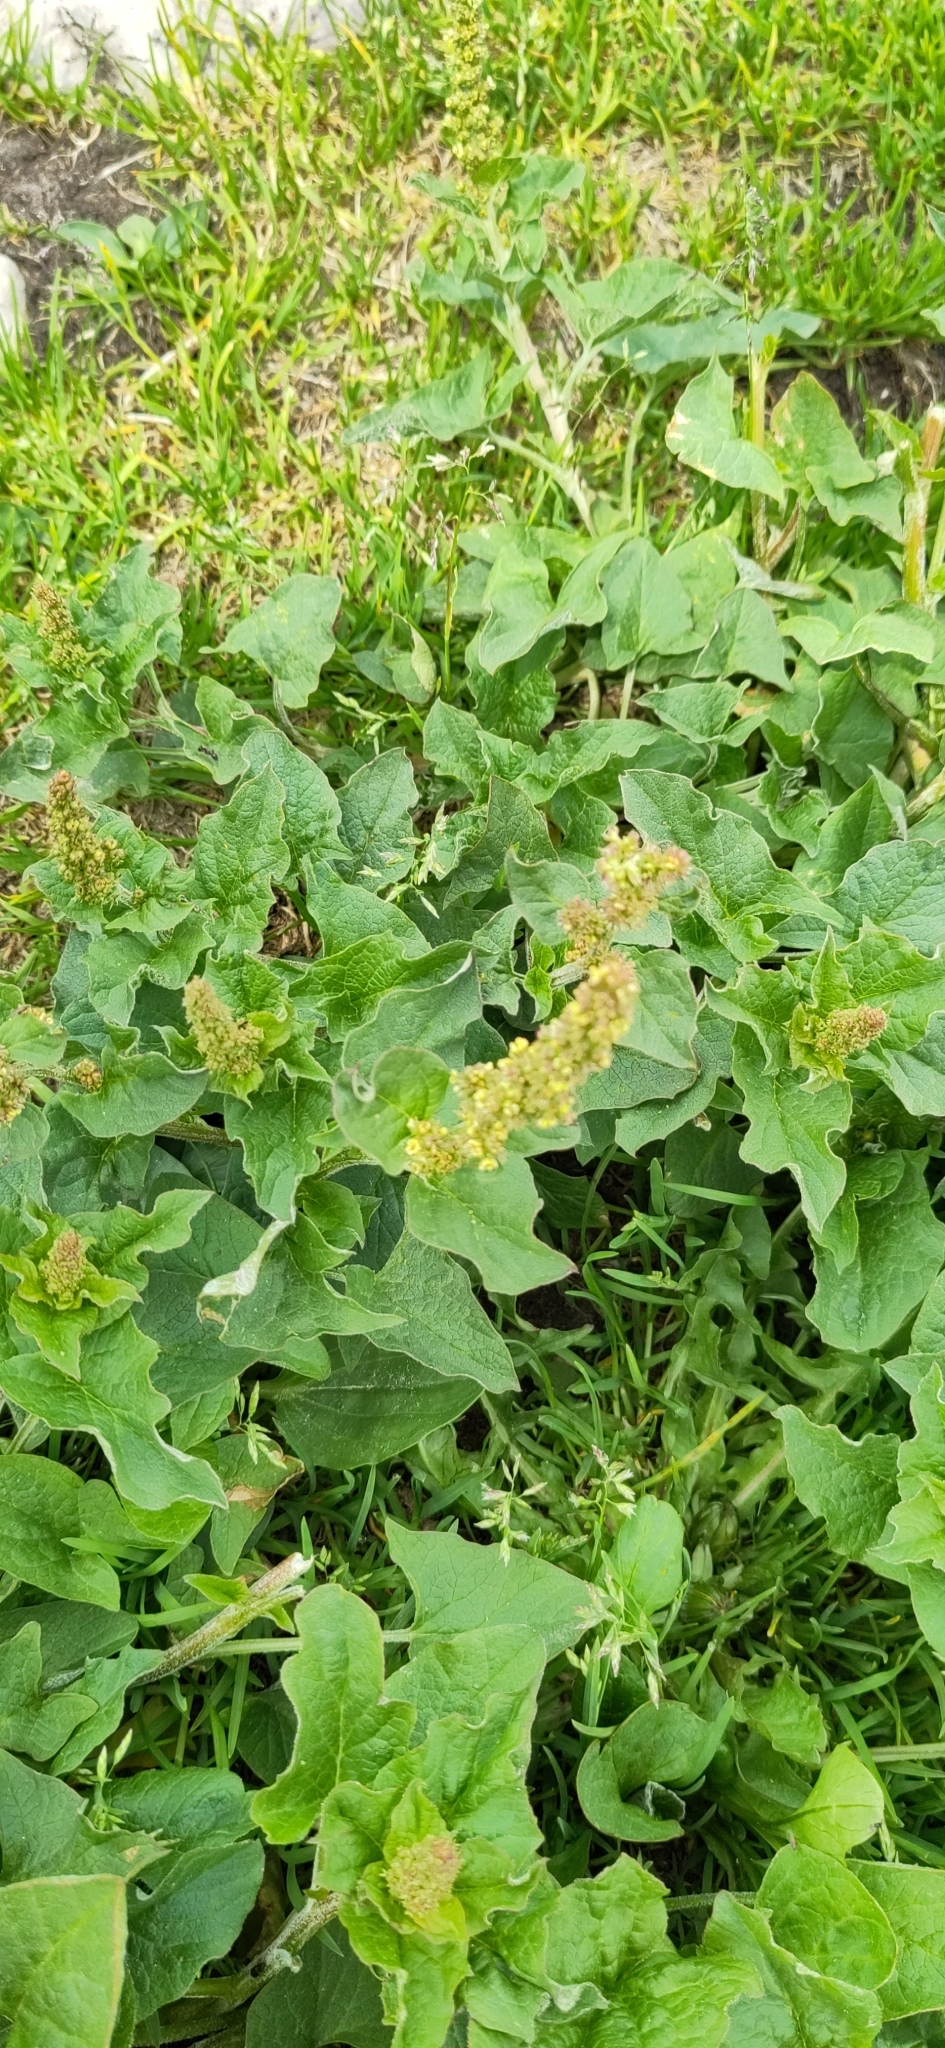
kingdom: Plantae
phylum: Tracheophyta
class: Magnoliopsida
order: Caryophyllales
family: Amaranthaceae
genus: Blitum
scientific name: Blitum bonus-henricus
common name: Good king henry
